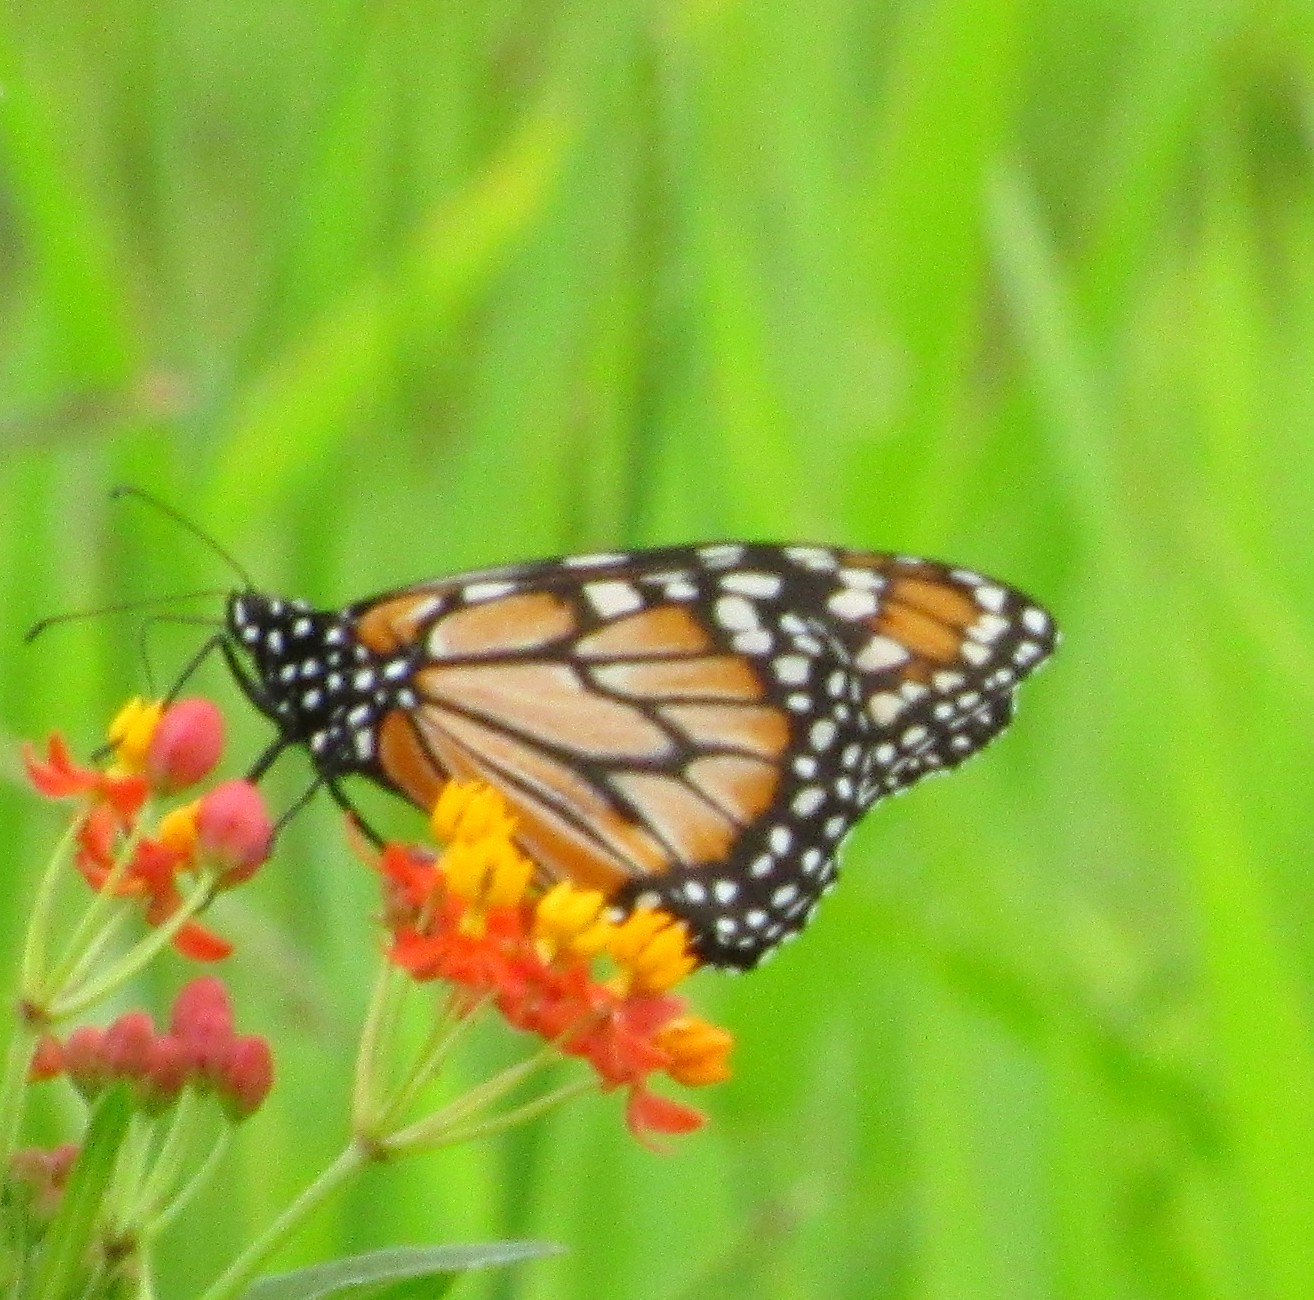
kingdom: Animalia
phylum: Arthropoda
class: Insecta
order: Lepidoptera
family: Nymphalidae
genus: Danaus
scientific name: Danaus erippus
